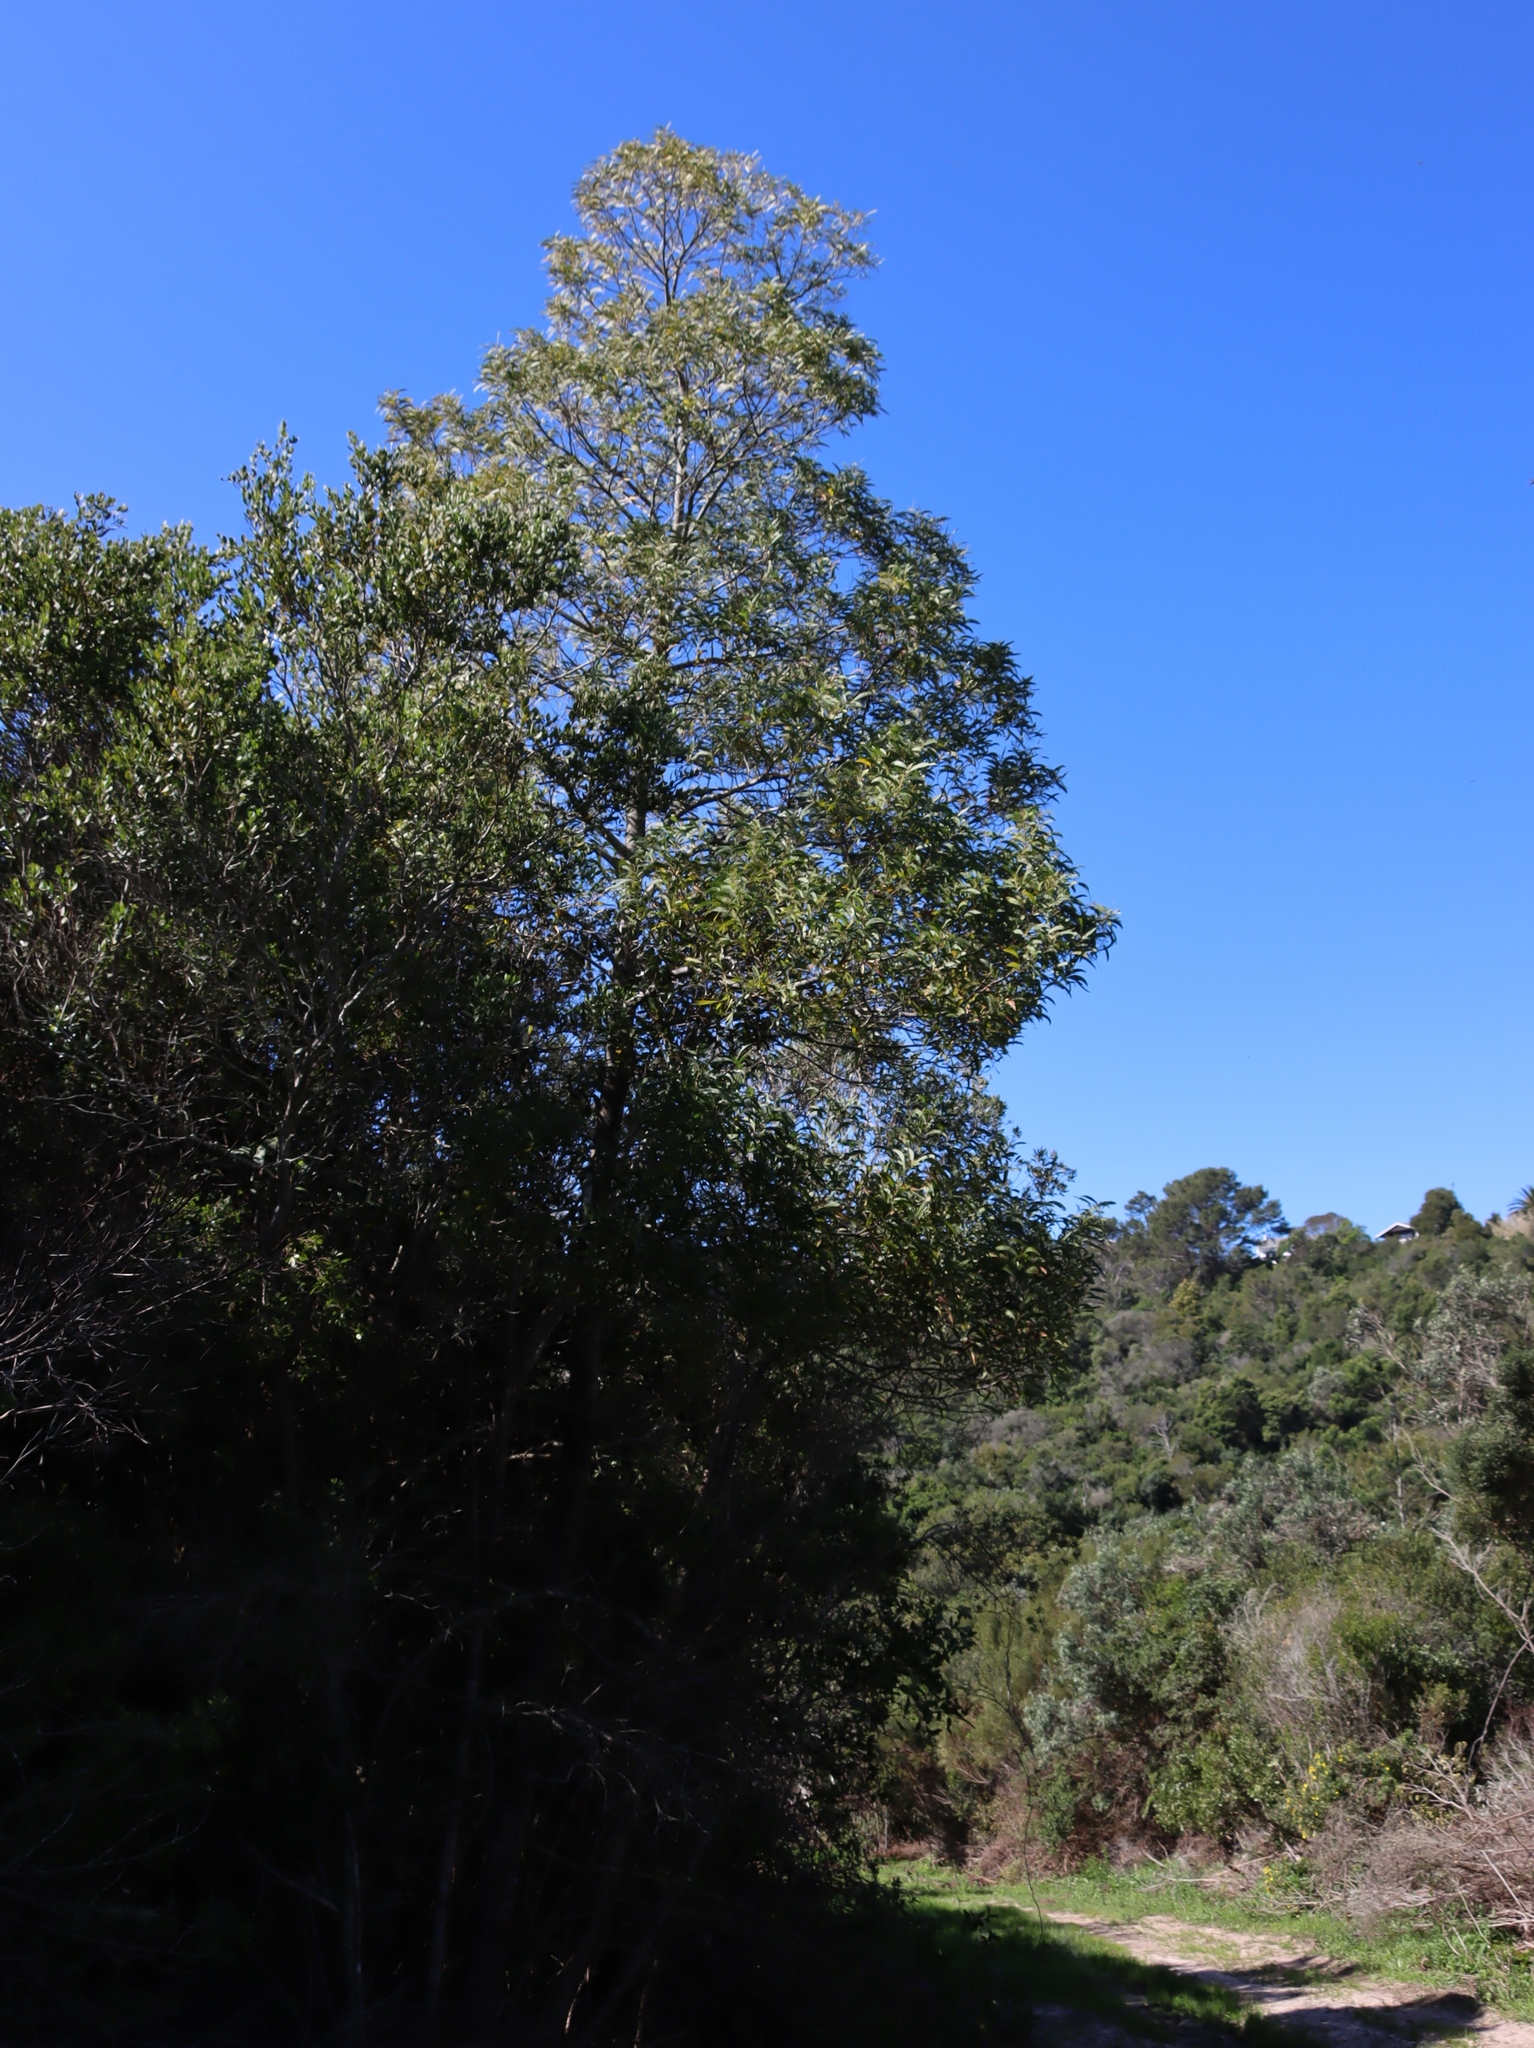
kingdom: Plantae
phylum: Tracheophyta
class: Magnoliopsida
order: Fabales
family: Fabaceae
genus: Acacia
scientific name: Acacia melanoxylon
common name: Blackwood
